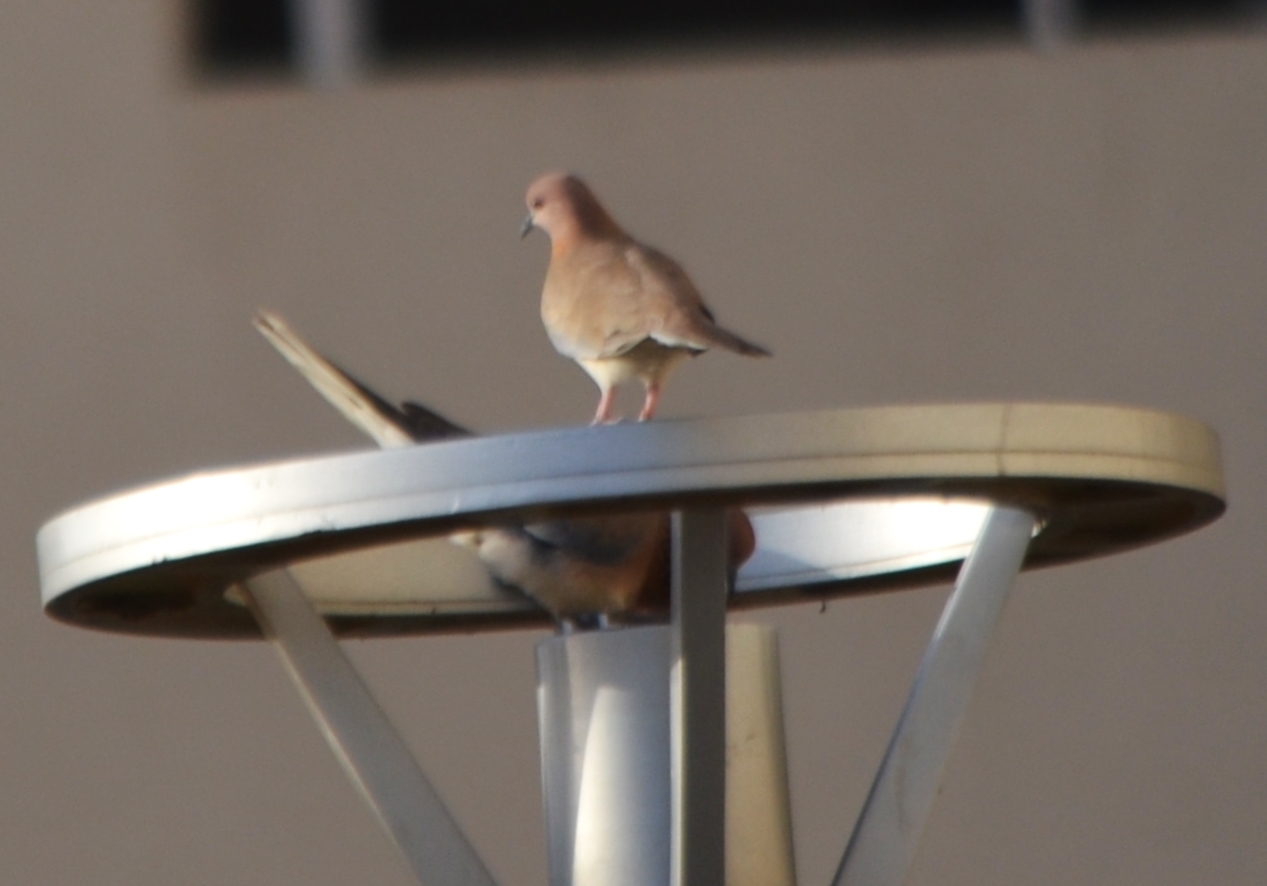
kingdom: Animalia
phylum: Chordata
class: Aves
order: Columbiformes
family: Columbidae
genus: Spilopelia
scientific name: Spilopelia senegalensis
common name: Laughing dove
